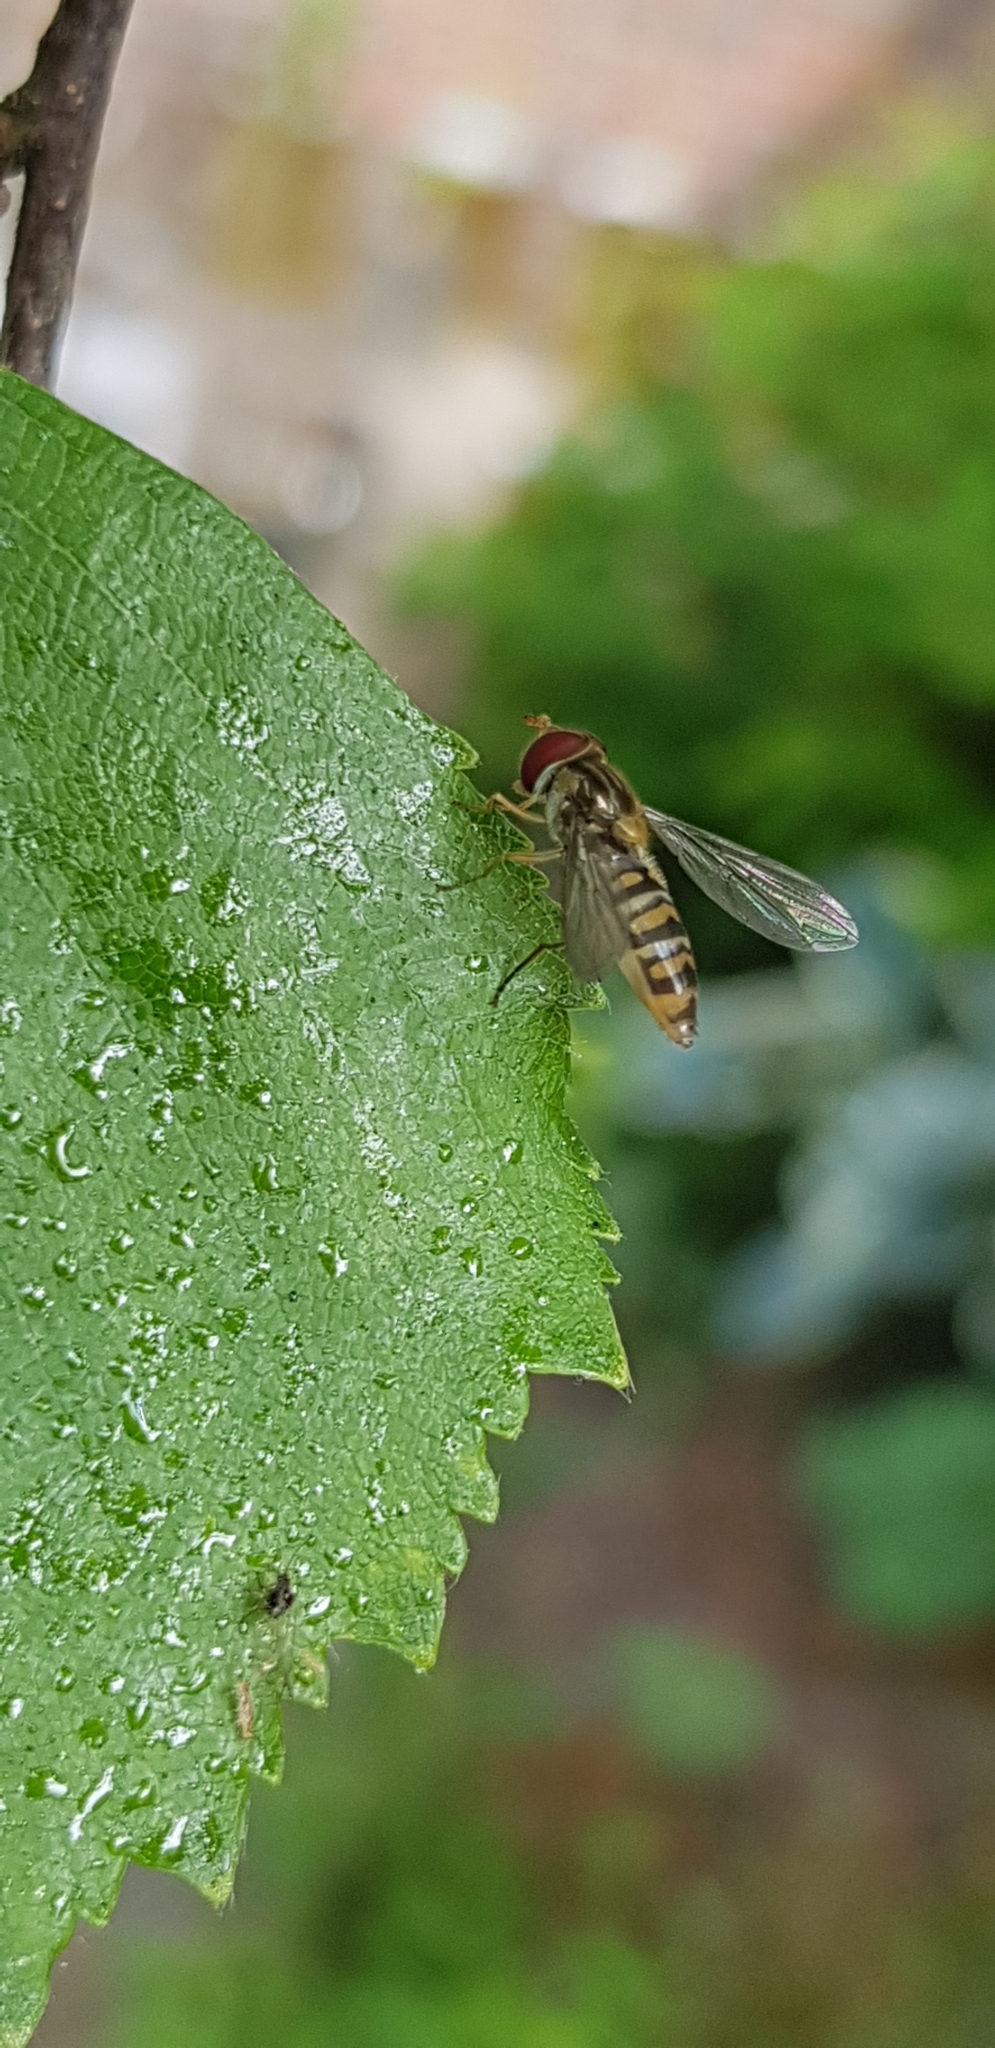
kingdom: Animalia
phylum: Arthropoda
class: Insecta
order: Diptera
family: Syrphidae
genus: Episyrphus
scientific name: Episyrphus balteatus
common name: Marmalade hoverfly
